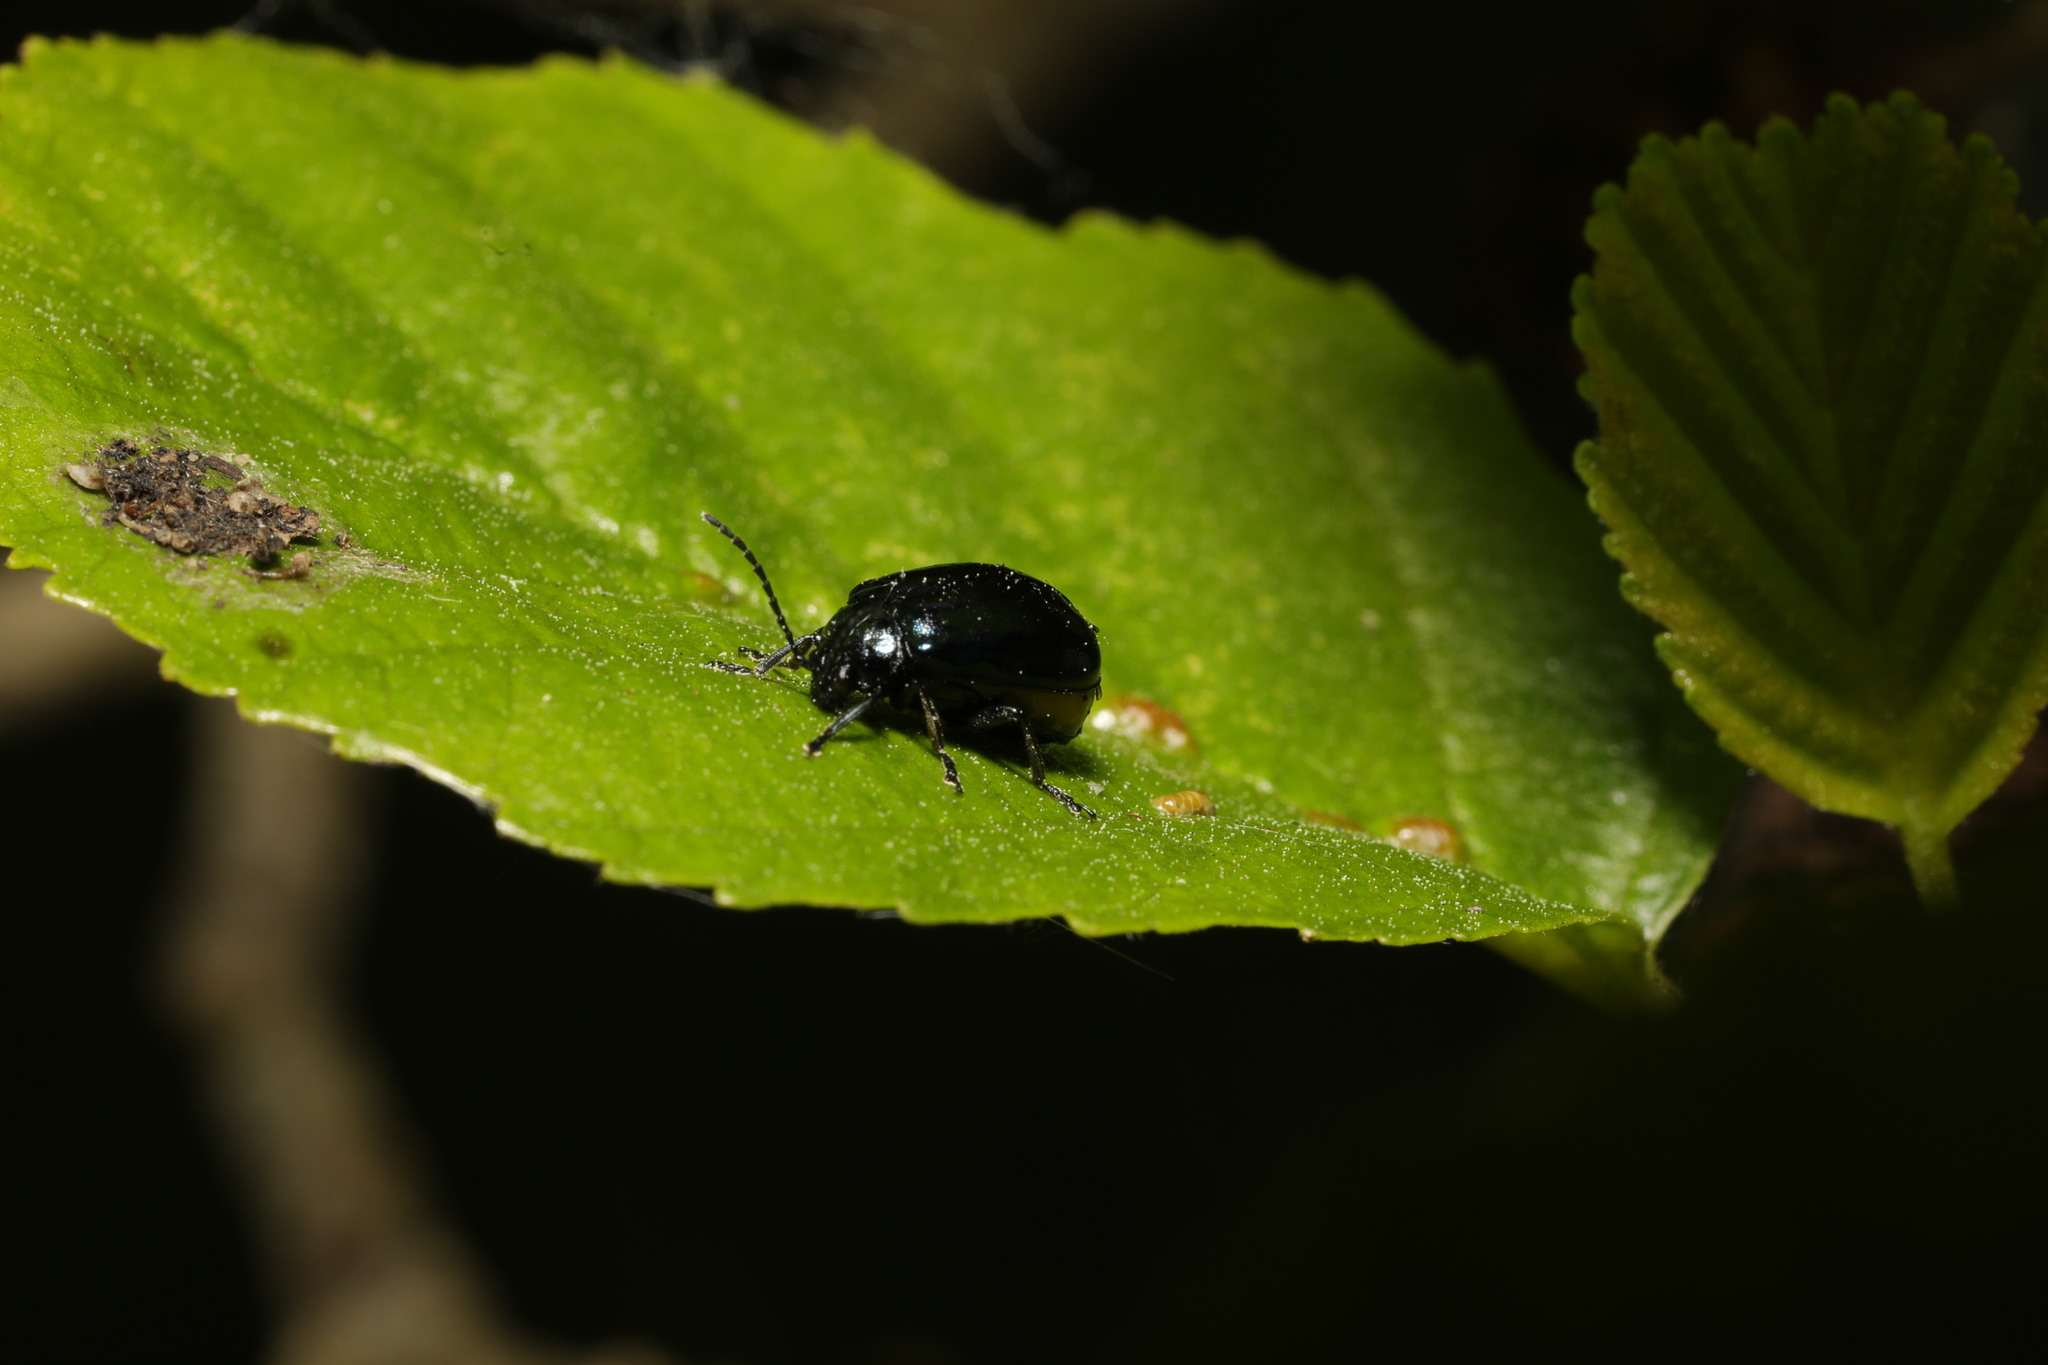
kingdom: Animalia
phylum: Arthropoda
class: Insecta
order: Coleoptera
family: Chrysomelidae
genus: Agelastica
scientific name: Agelastica alni
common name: Alder leaf beetle
